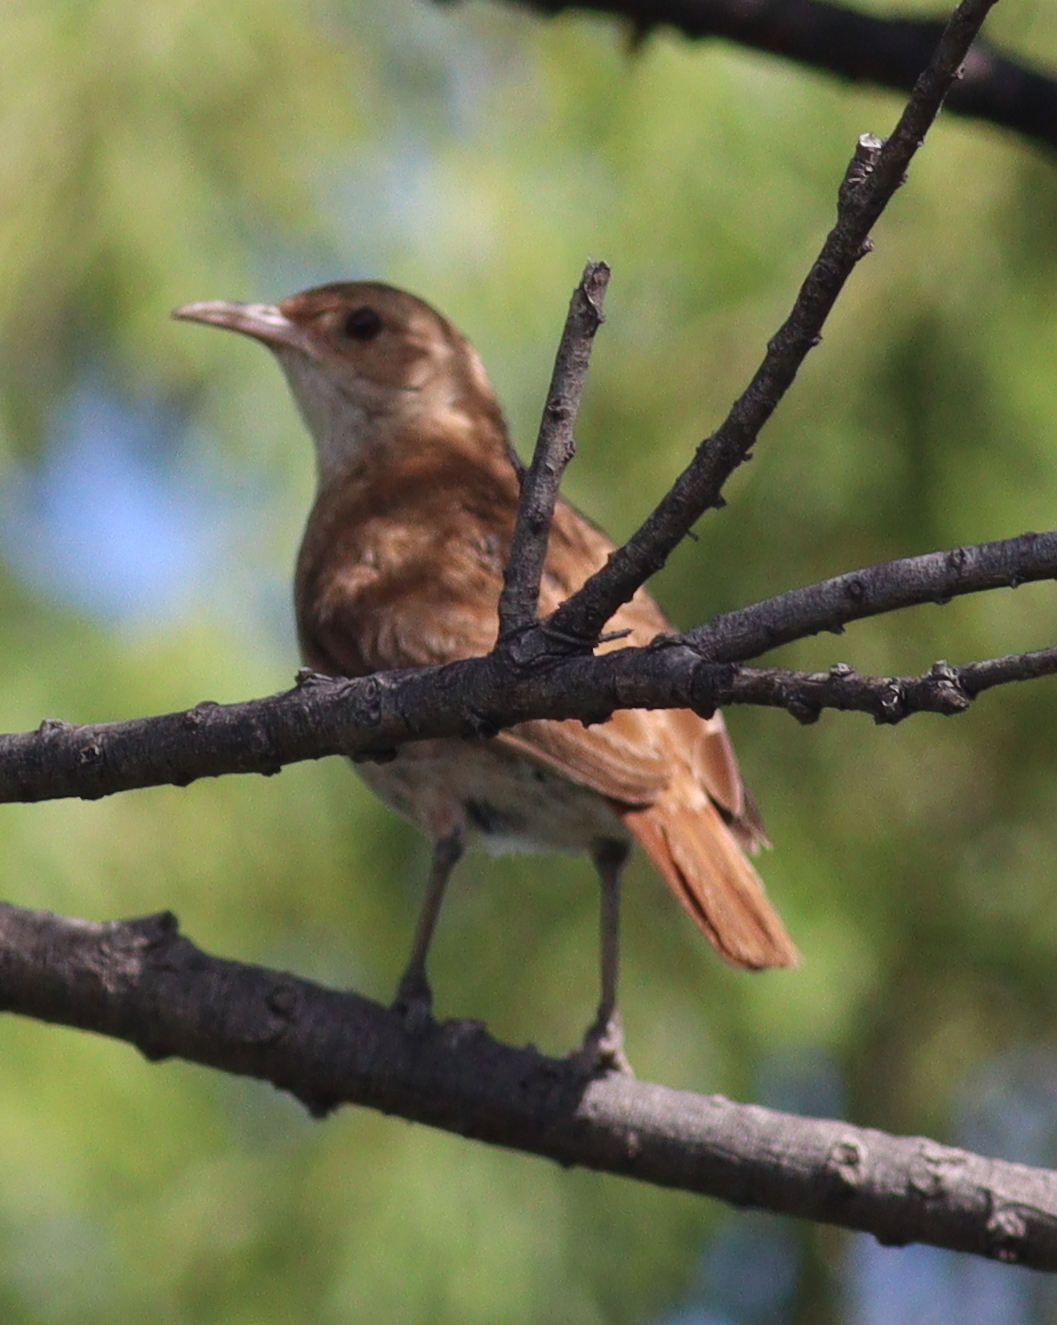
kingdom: Animalia
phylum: Chordata
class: Aves
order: Passeriformes
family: Furnariidae
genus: Furnarius
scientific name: Furnarius rufus
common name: Rufous hornero
